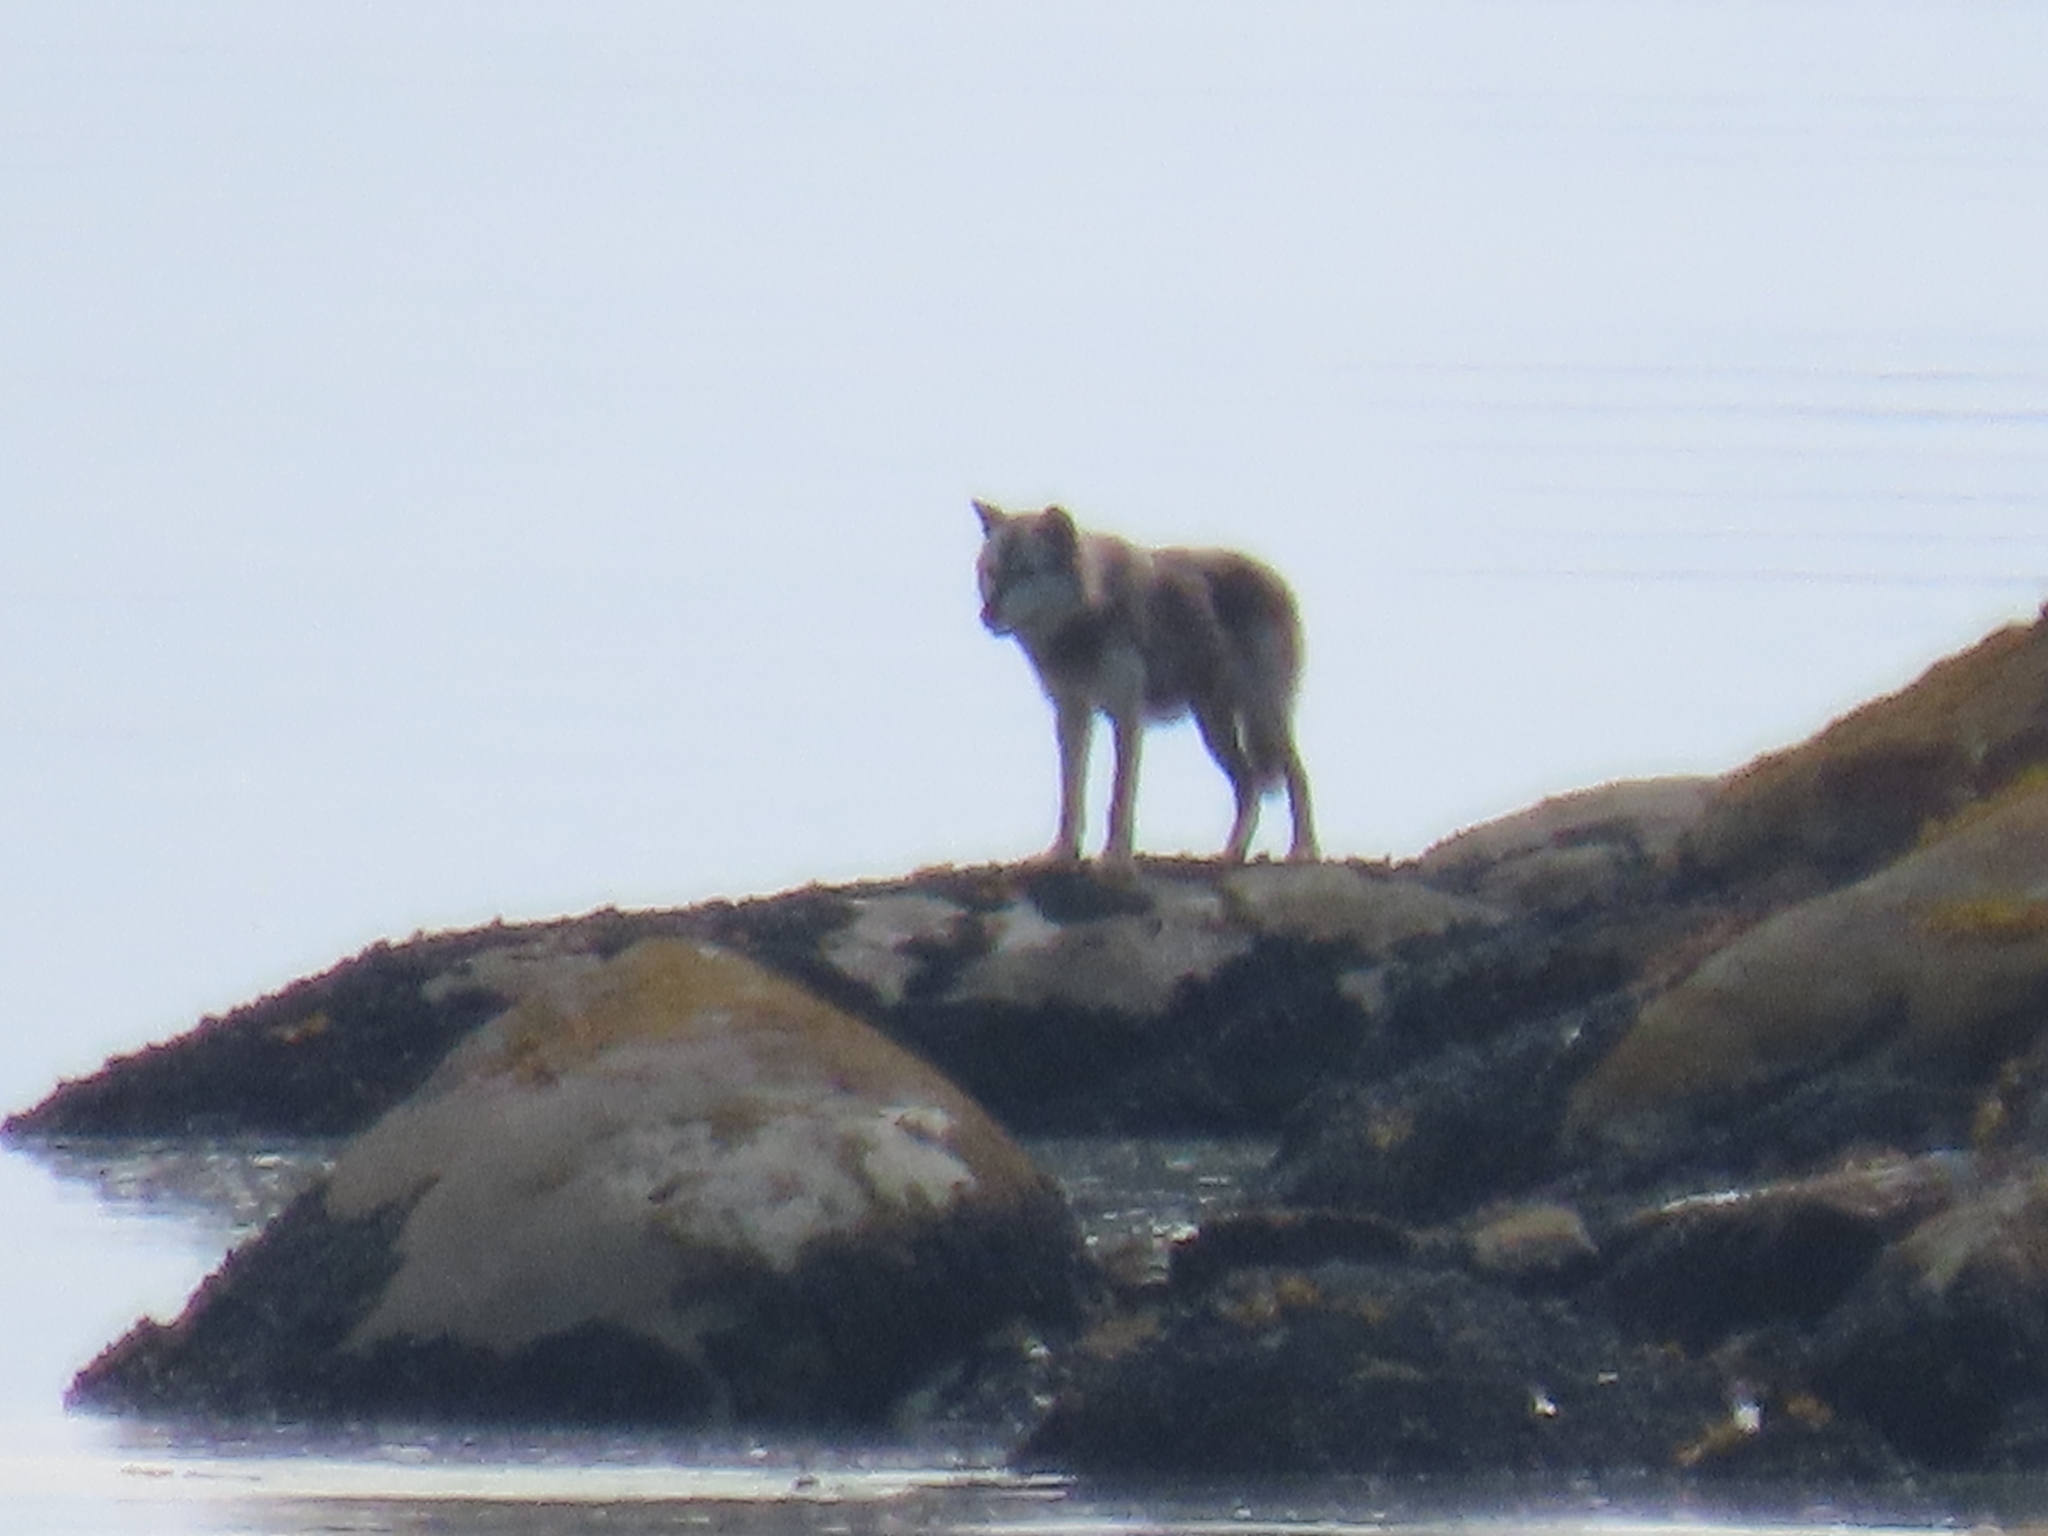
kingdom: Animalia
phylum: Chordata
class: Mammalia
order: Carnivora
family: Canidae
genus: Canis
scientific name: Canis lupus
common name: Gray wolf
